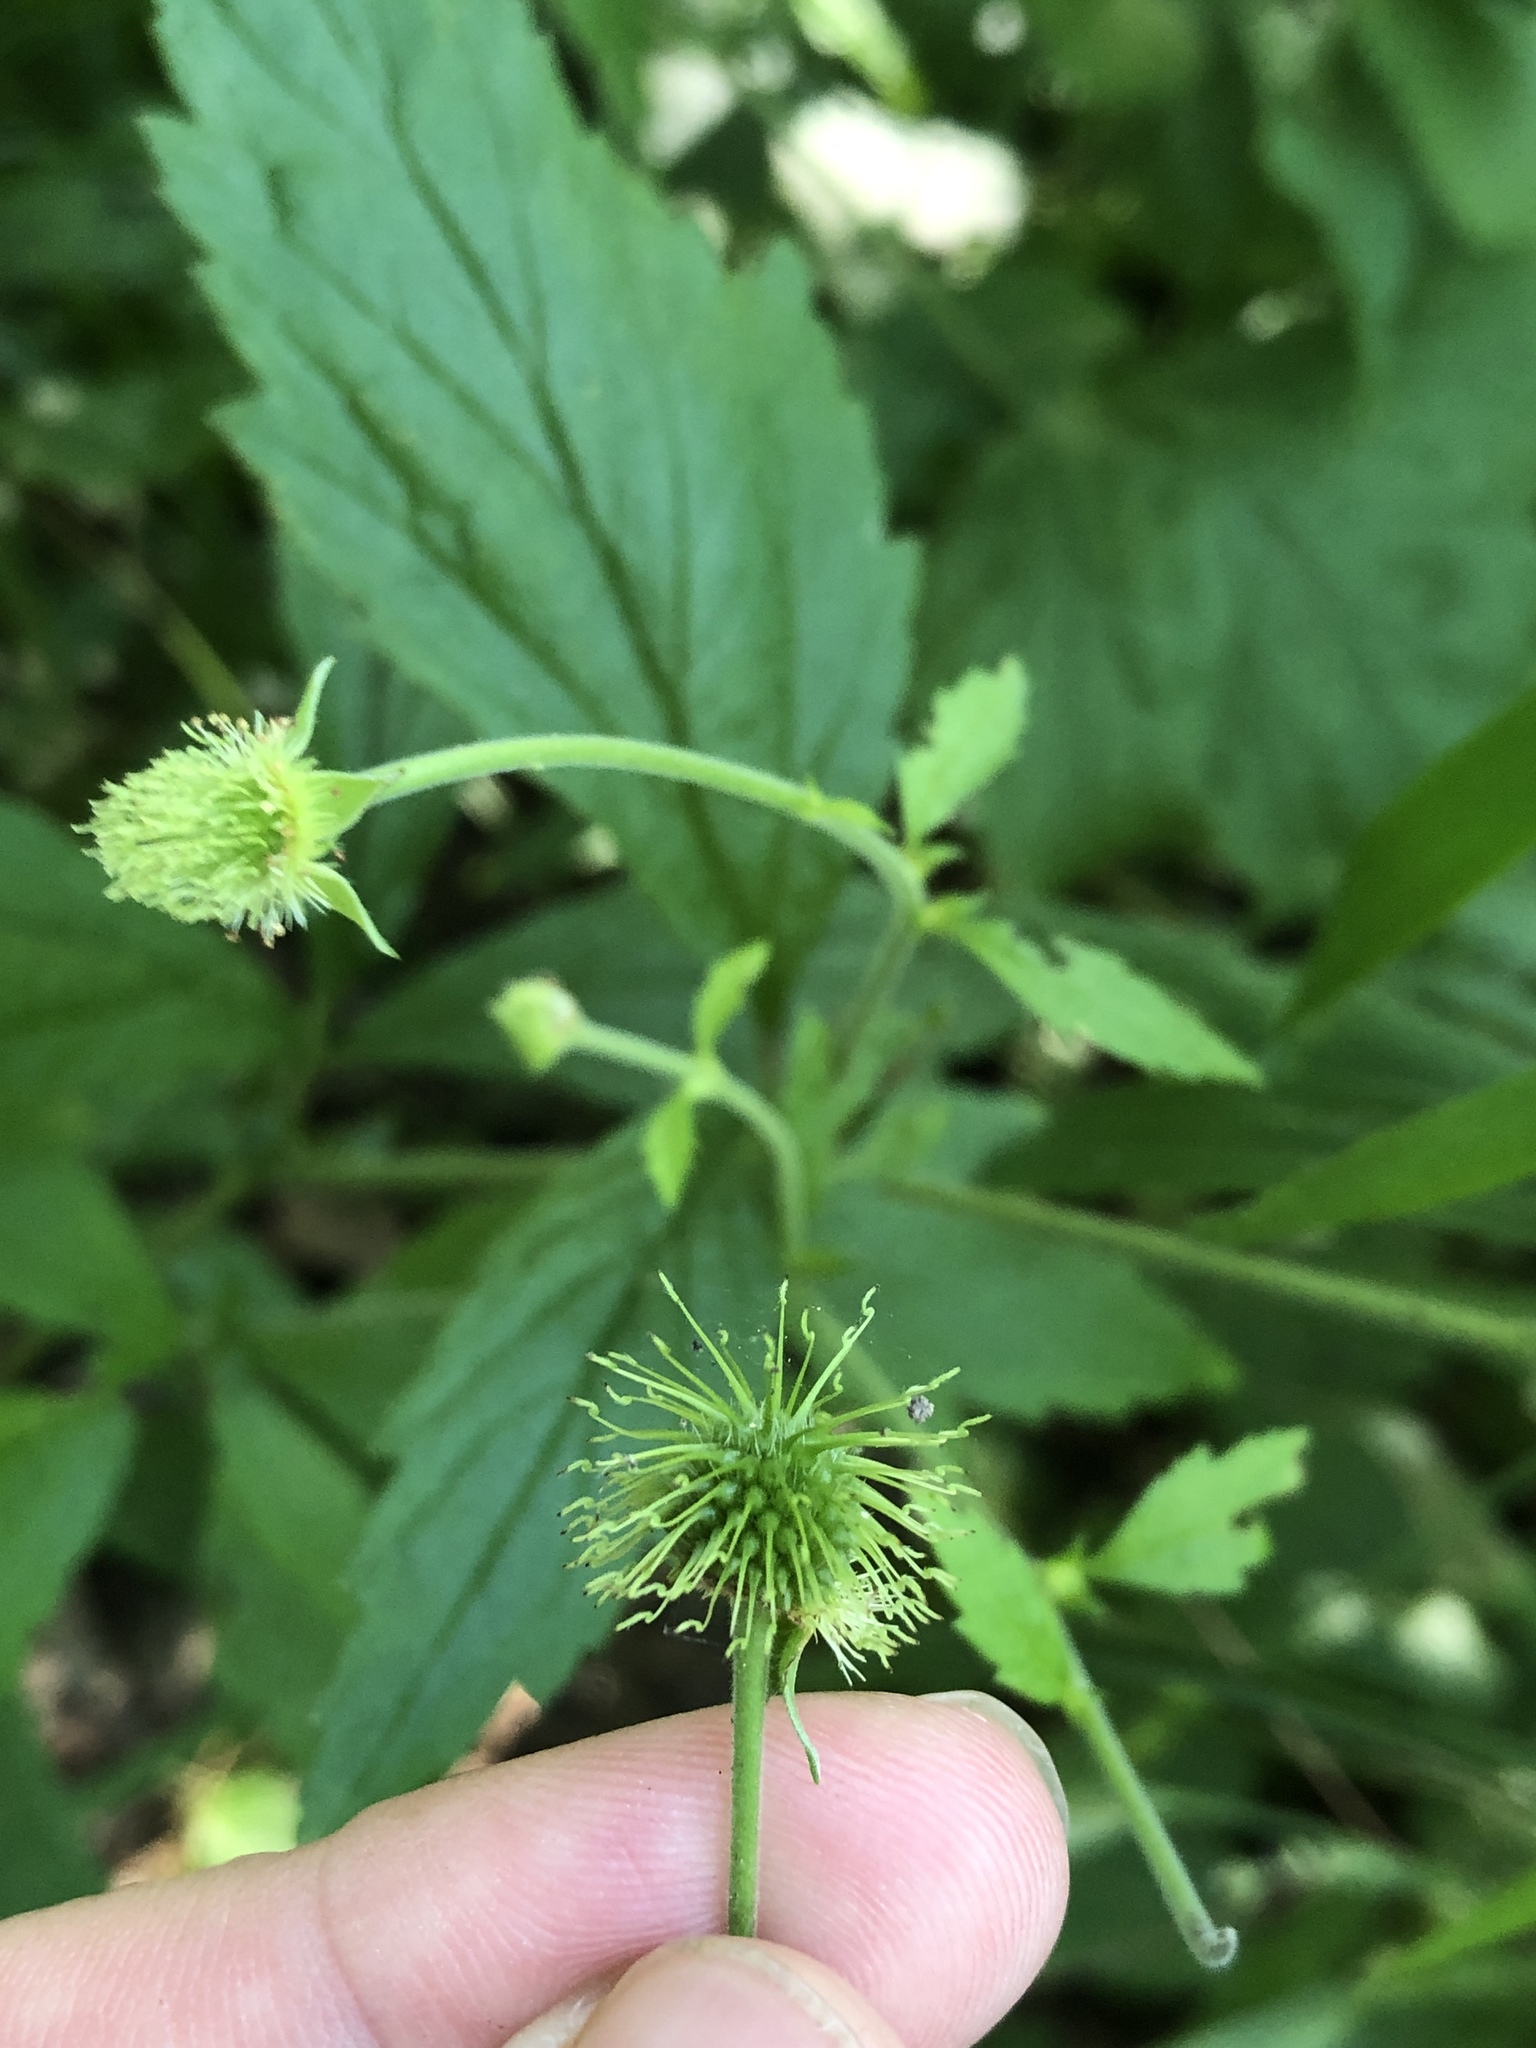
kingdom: Plantae
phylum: Tracheophyta
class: Magnoliopsida
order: Rosales
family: Rosaceae
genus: Geum
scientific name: Geum canadense
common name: White avens
